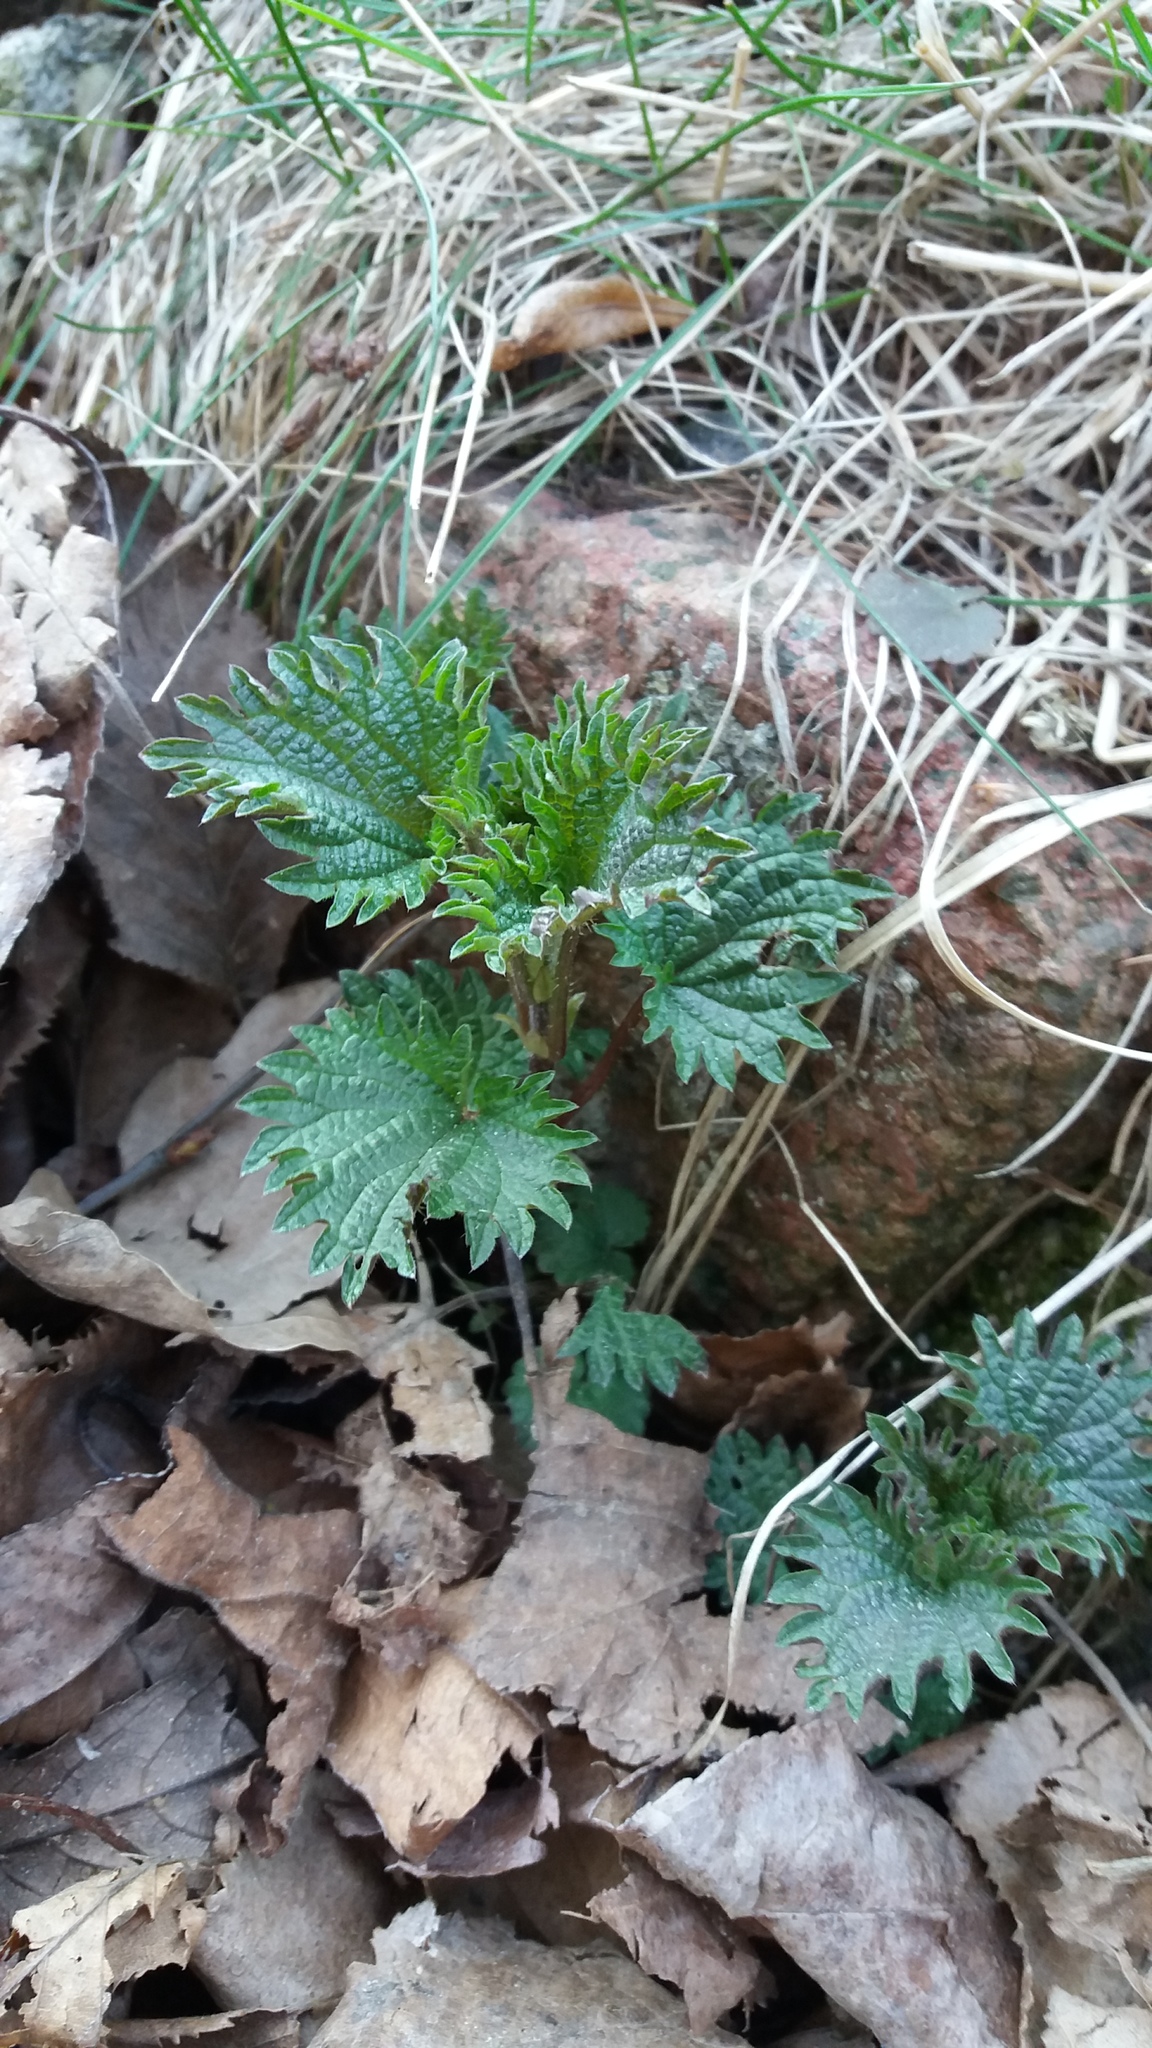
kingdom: Plantae
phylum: Tracheophyta
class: Magnoliopsida
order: Rosales
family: Urticaceae
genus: Urtica
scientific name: Urtica dioica
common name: Common nettle
